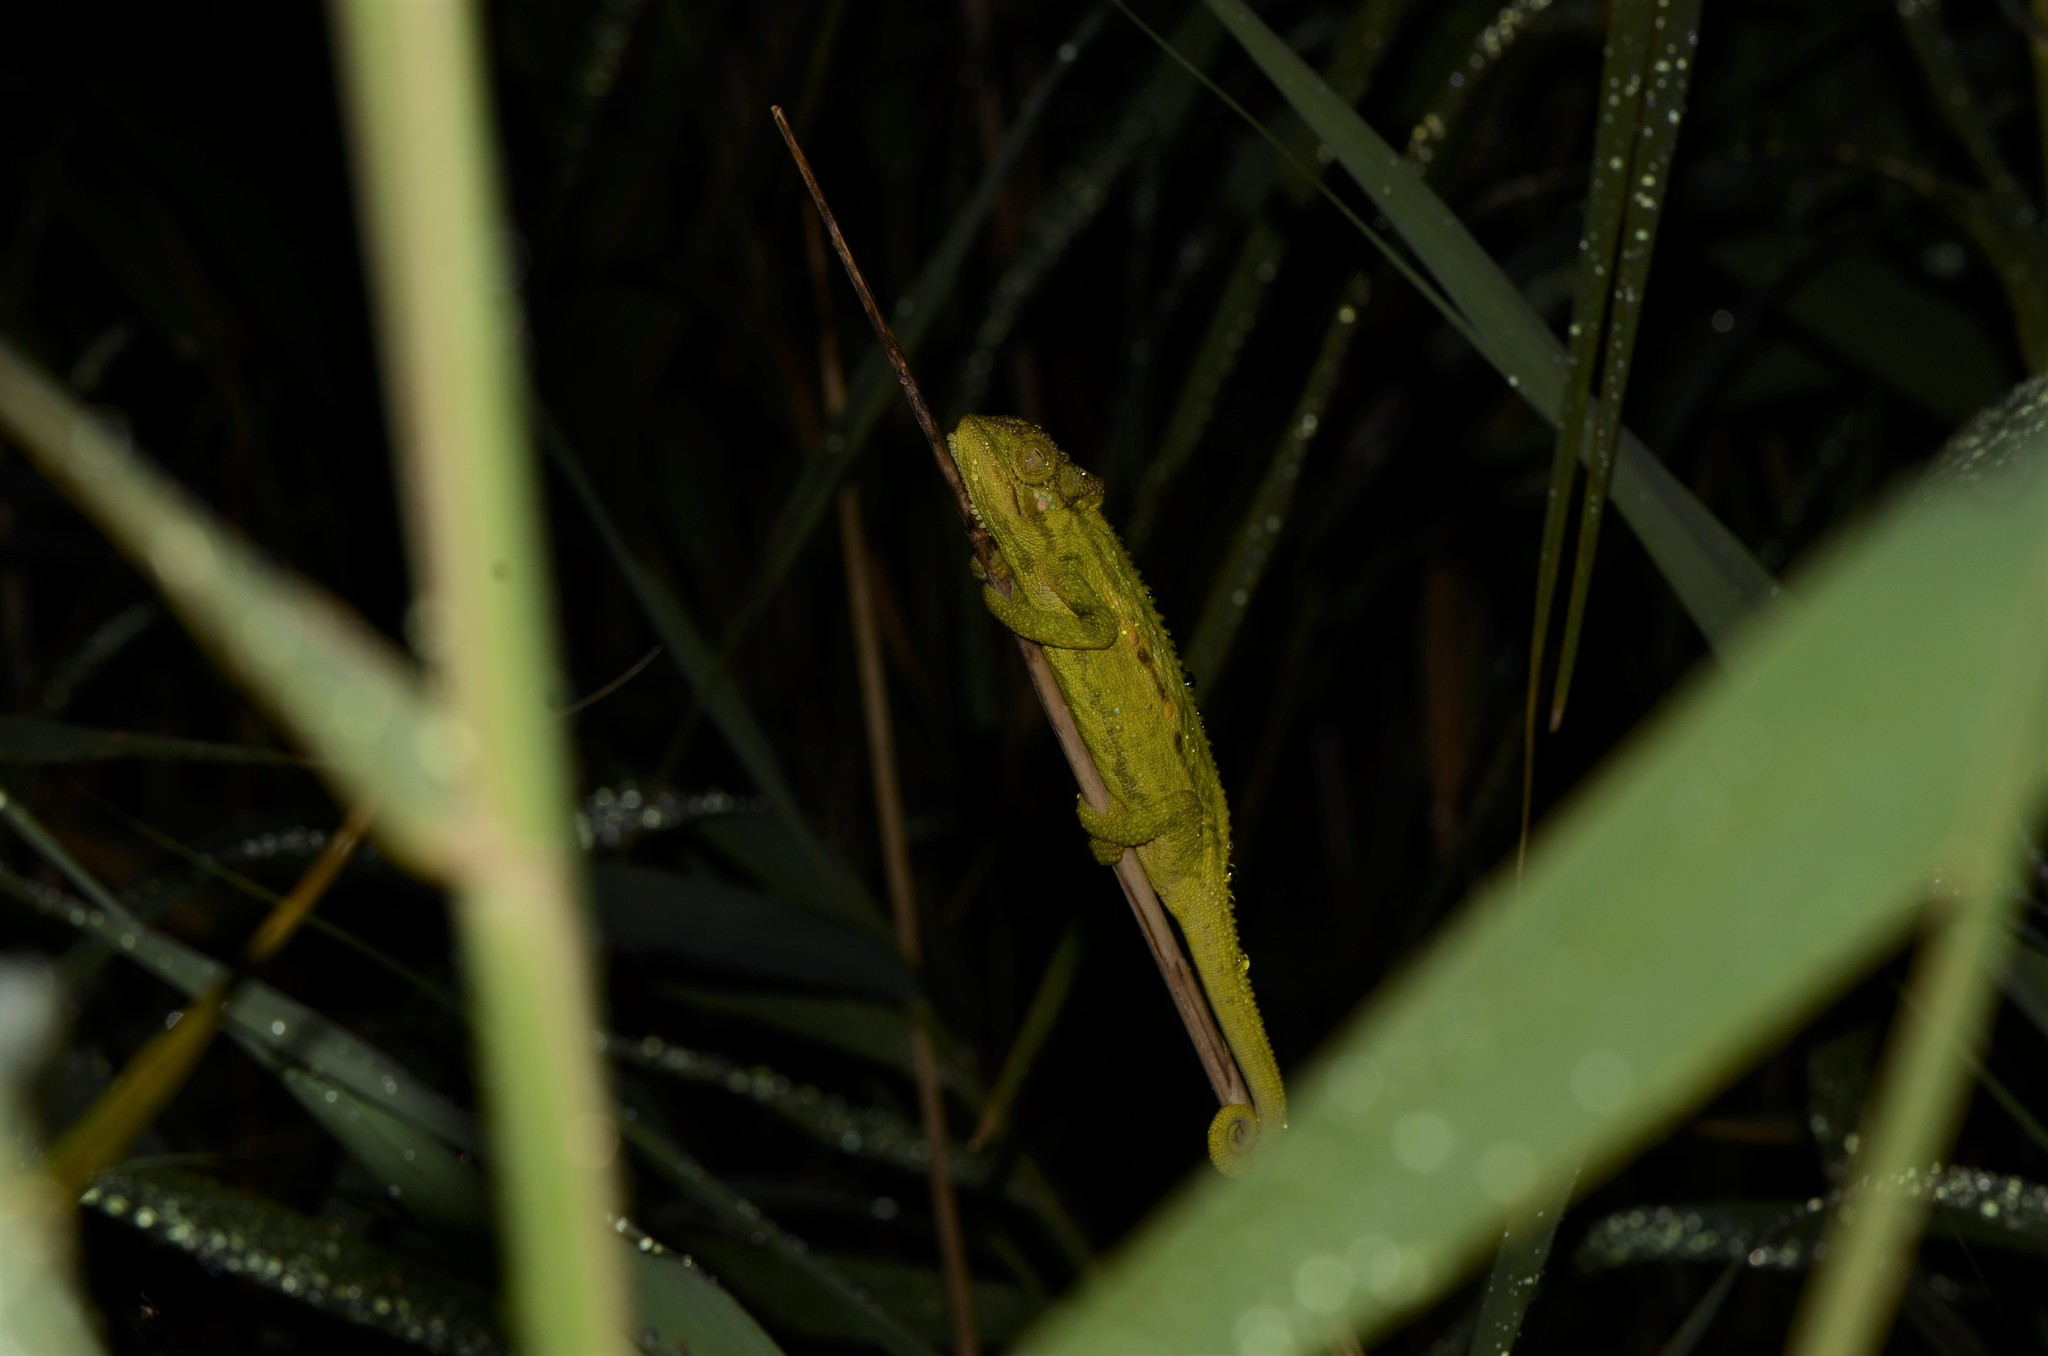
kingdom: Animalia
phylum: Chordata
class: Squamata
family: Chamaeleonidae
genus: Bradypodion
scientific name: Bradypodion pumilum
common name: Cape dwarf chameleon
